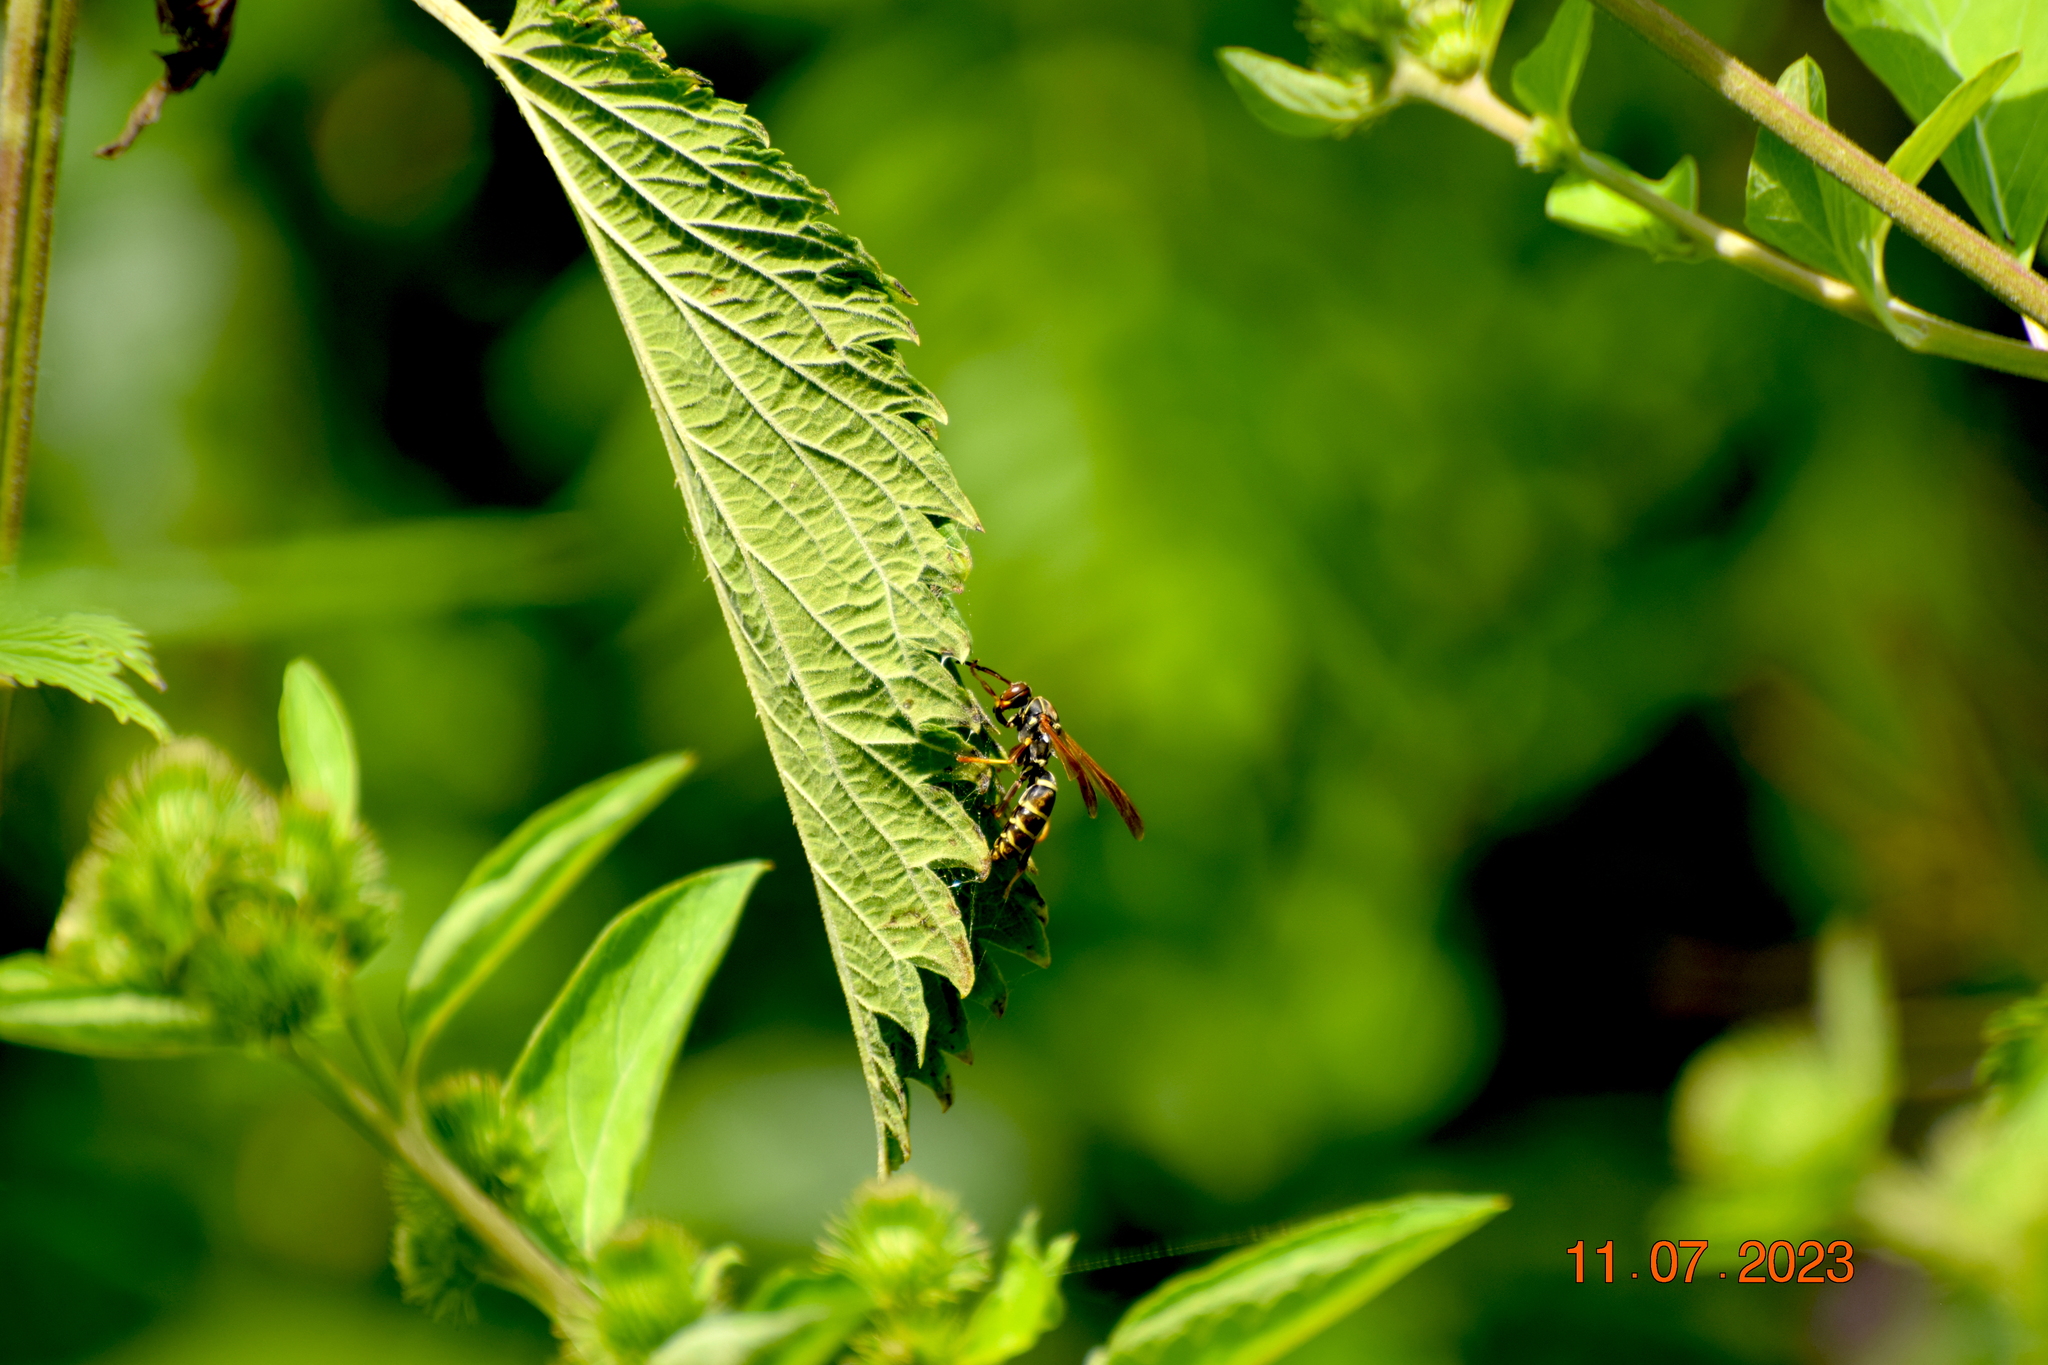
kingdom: Animalia
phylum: Arthropoda
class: Insecta
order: Hymenoptera
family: Eumenidae
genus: Polistes
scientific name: Polistes fuscatus
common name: Dark paper wasp
